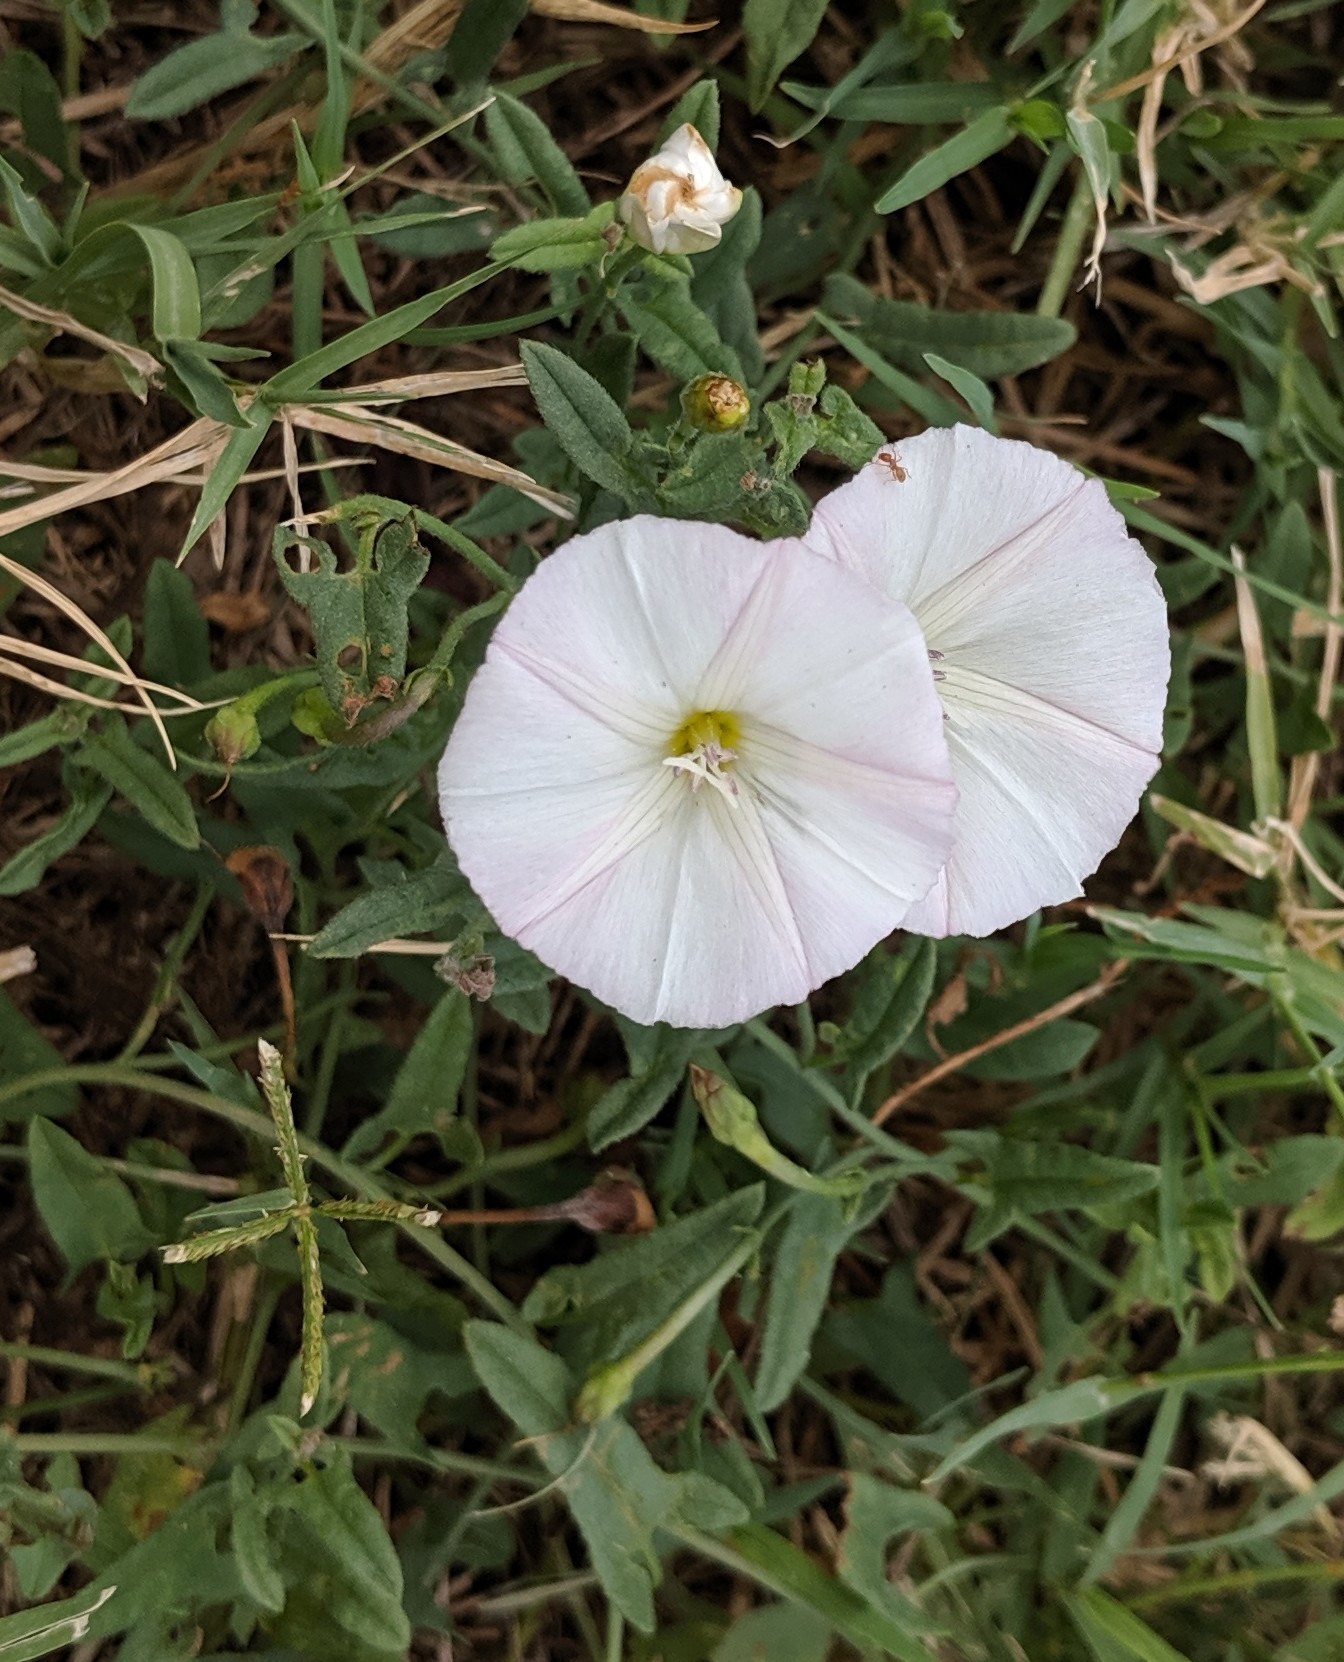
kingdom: Plantae
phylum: Tracheophyta
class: Magnoliopsida
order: Solanales
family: Convolvulaceae
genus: Convolvulus
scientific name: Convolvulus arvensis
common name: Field bindweed
